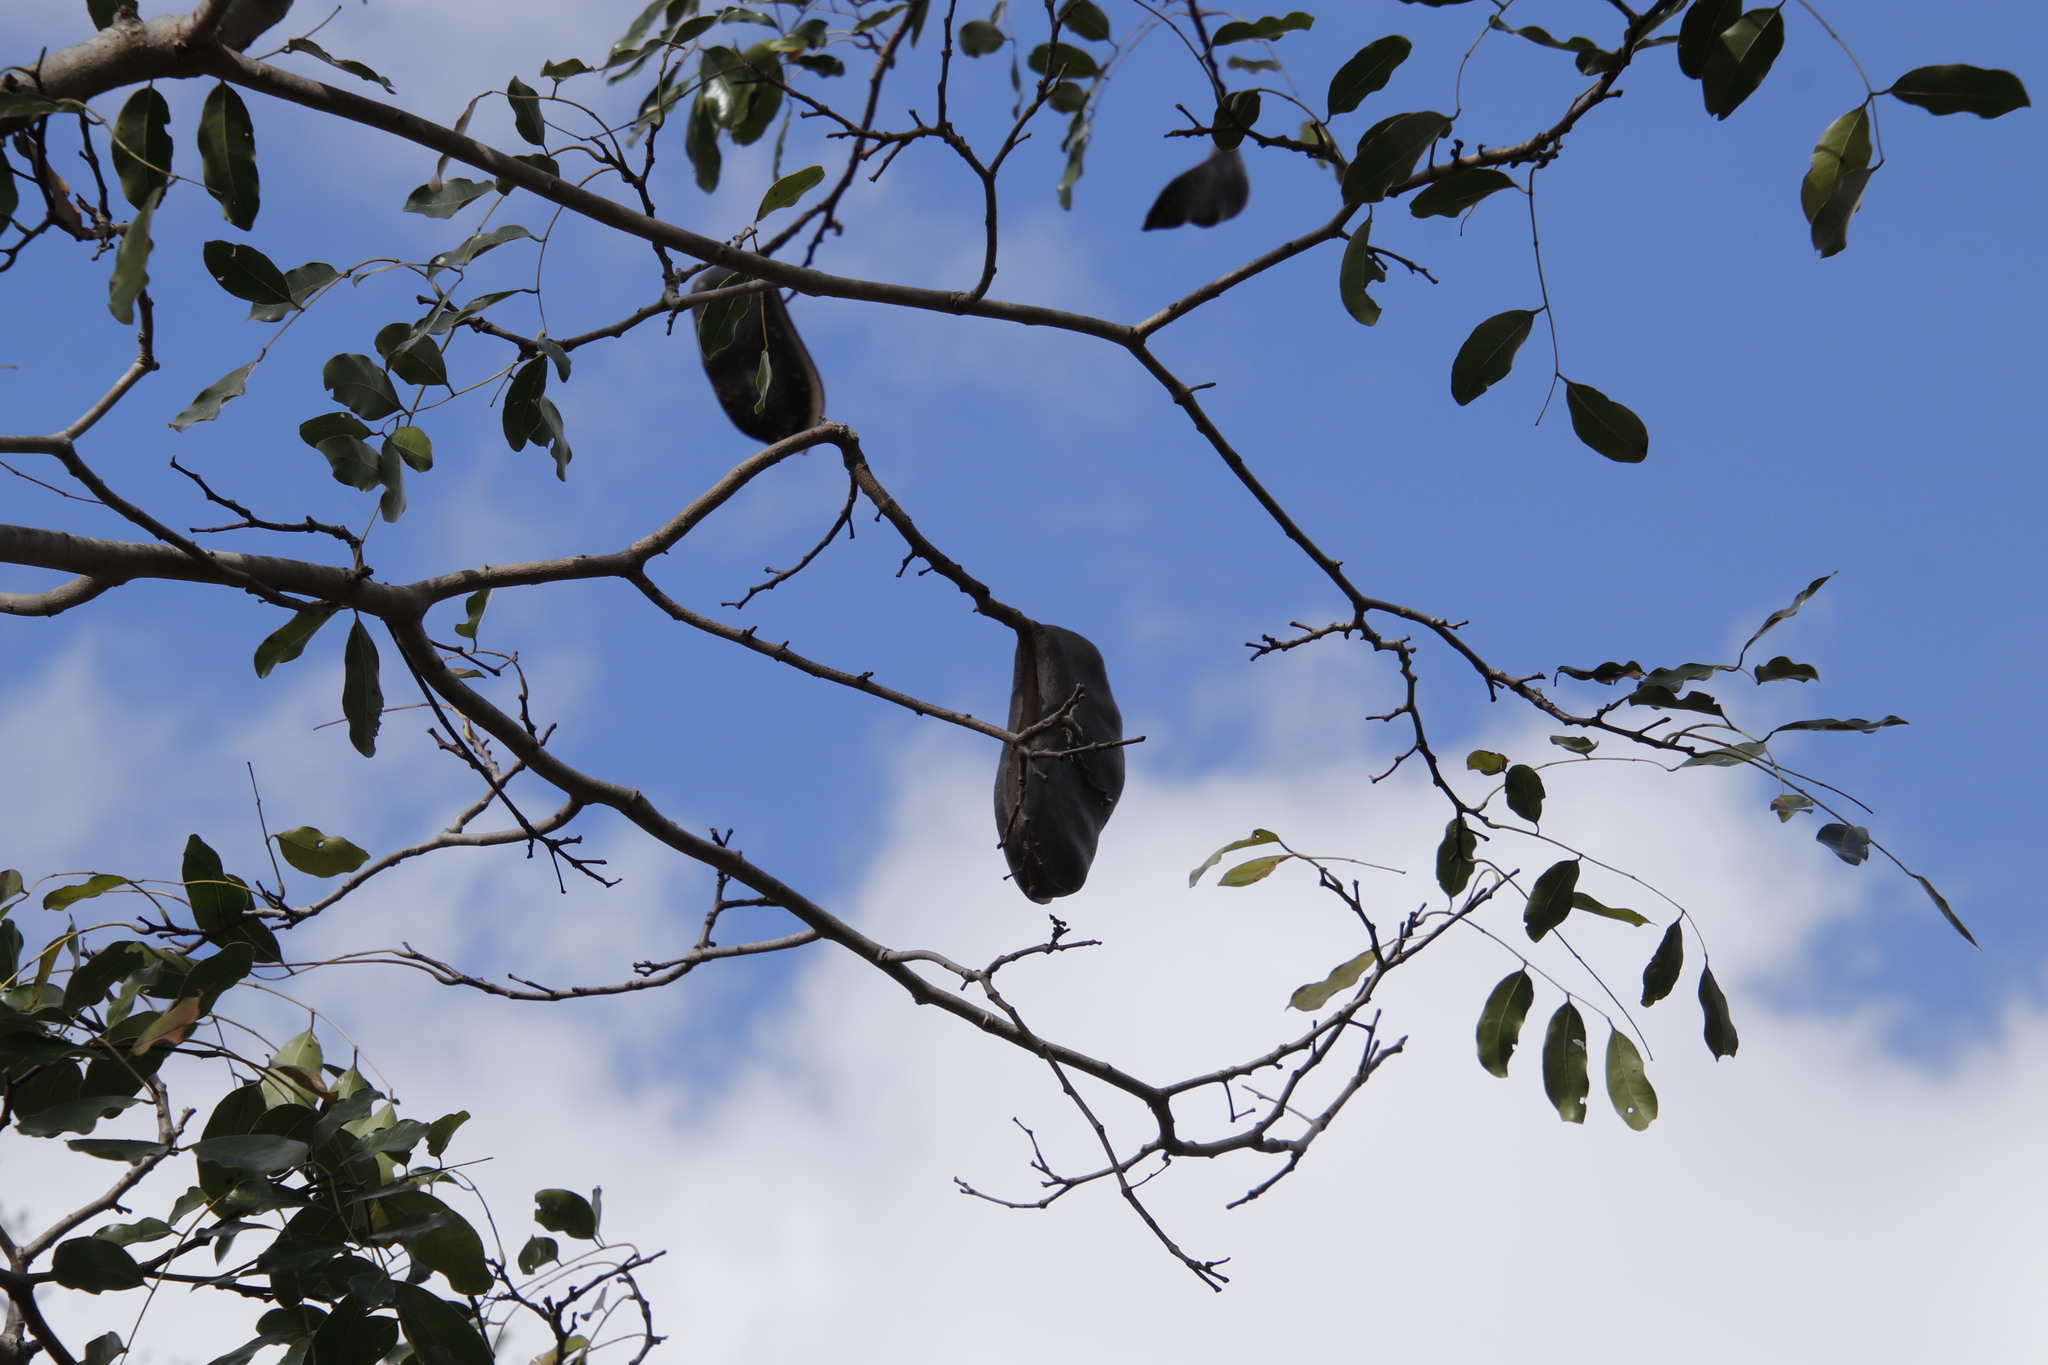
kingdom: Plantae
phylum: Tracheophyta
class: Magnoliopsida
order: Fabales
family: Fabaceae
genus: Afzelia
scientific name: Afzelia quanzensis
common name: Pod mahogany
